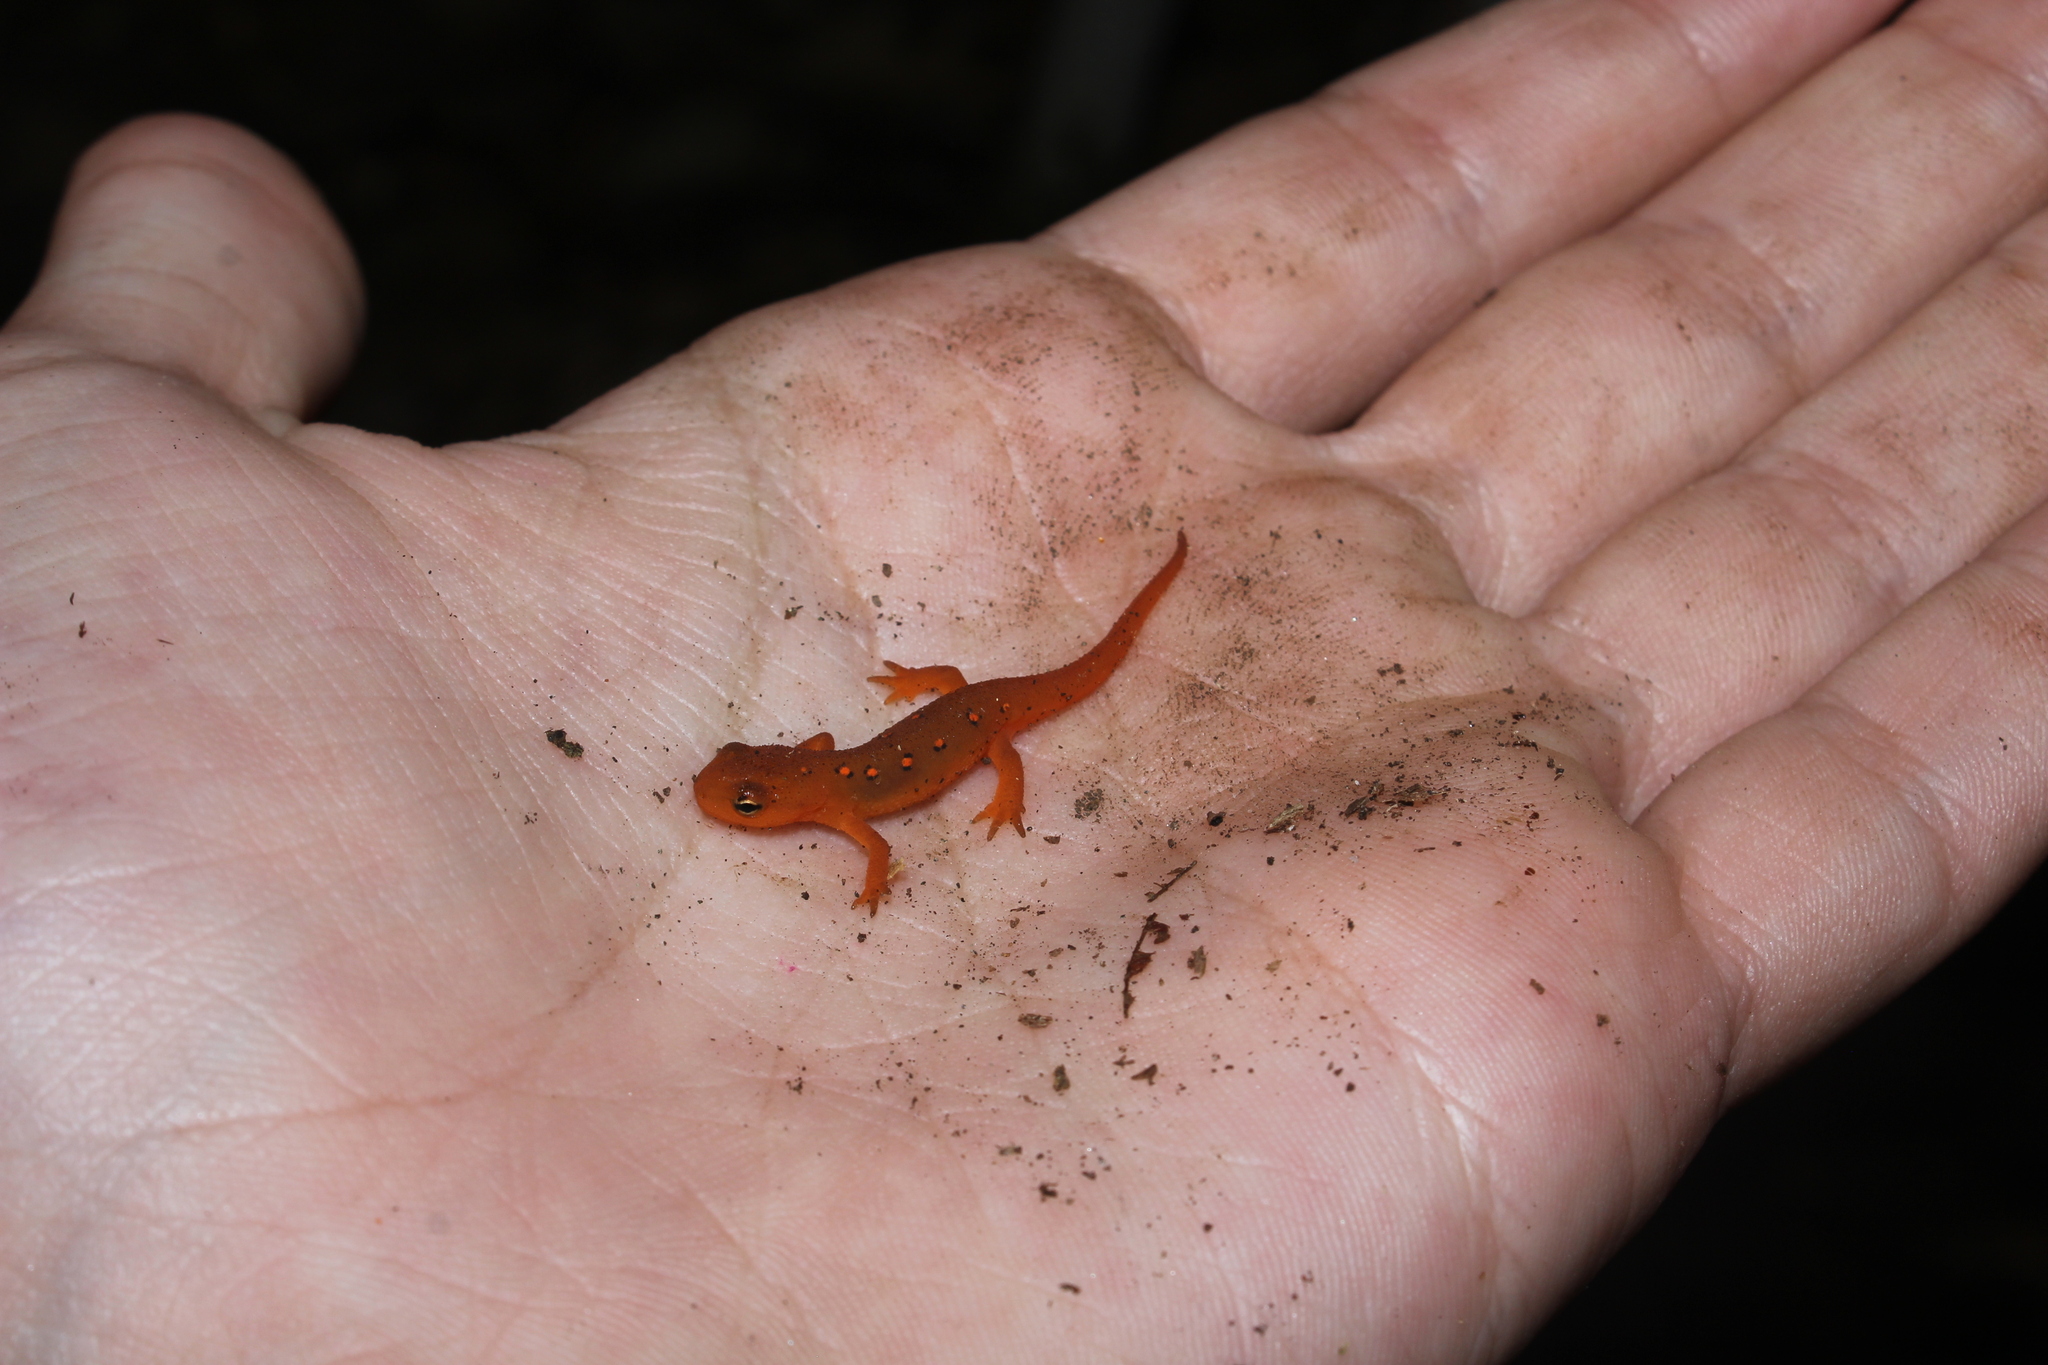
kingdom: Animalia
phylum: Chordata
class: Amphibia
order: Caudata
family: Salamandridae
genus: Notophthalmus
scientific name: Notophthalmus viridescens
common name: Eastern newt
